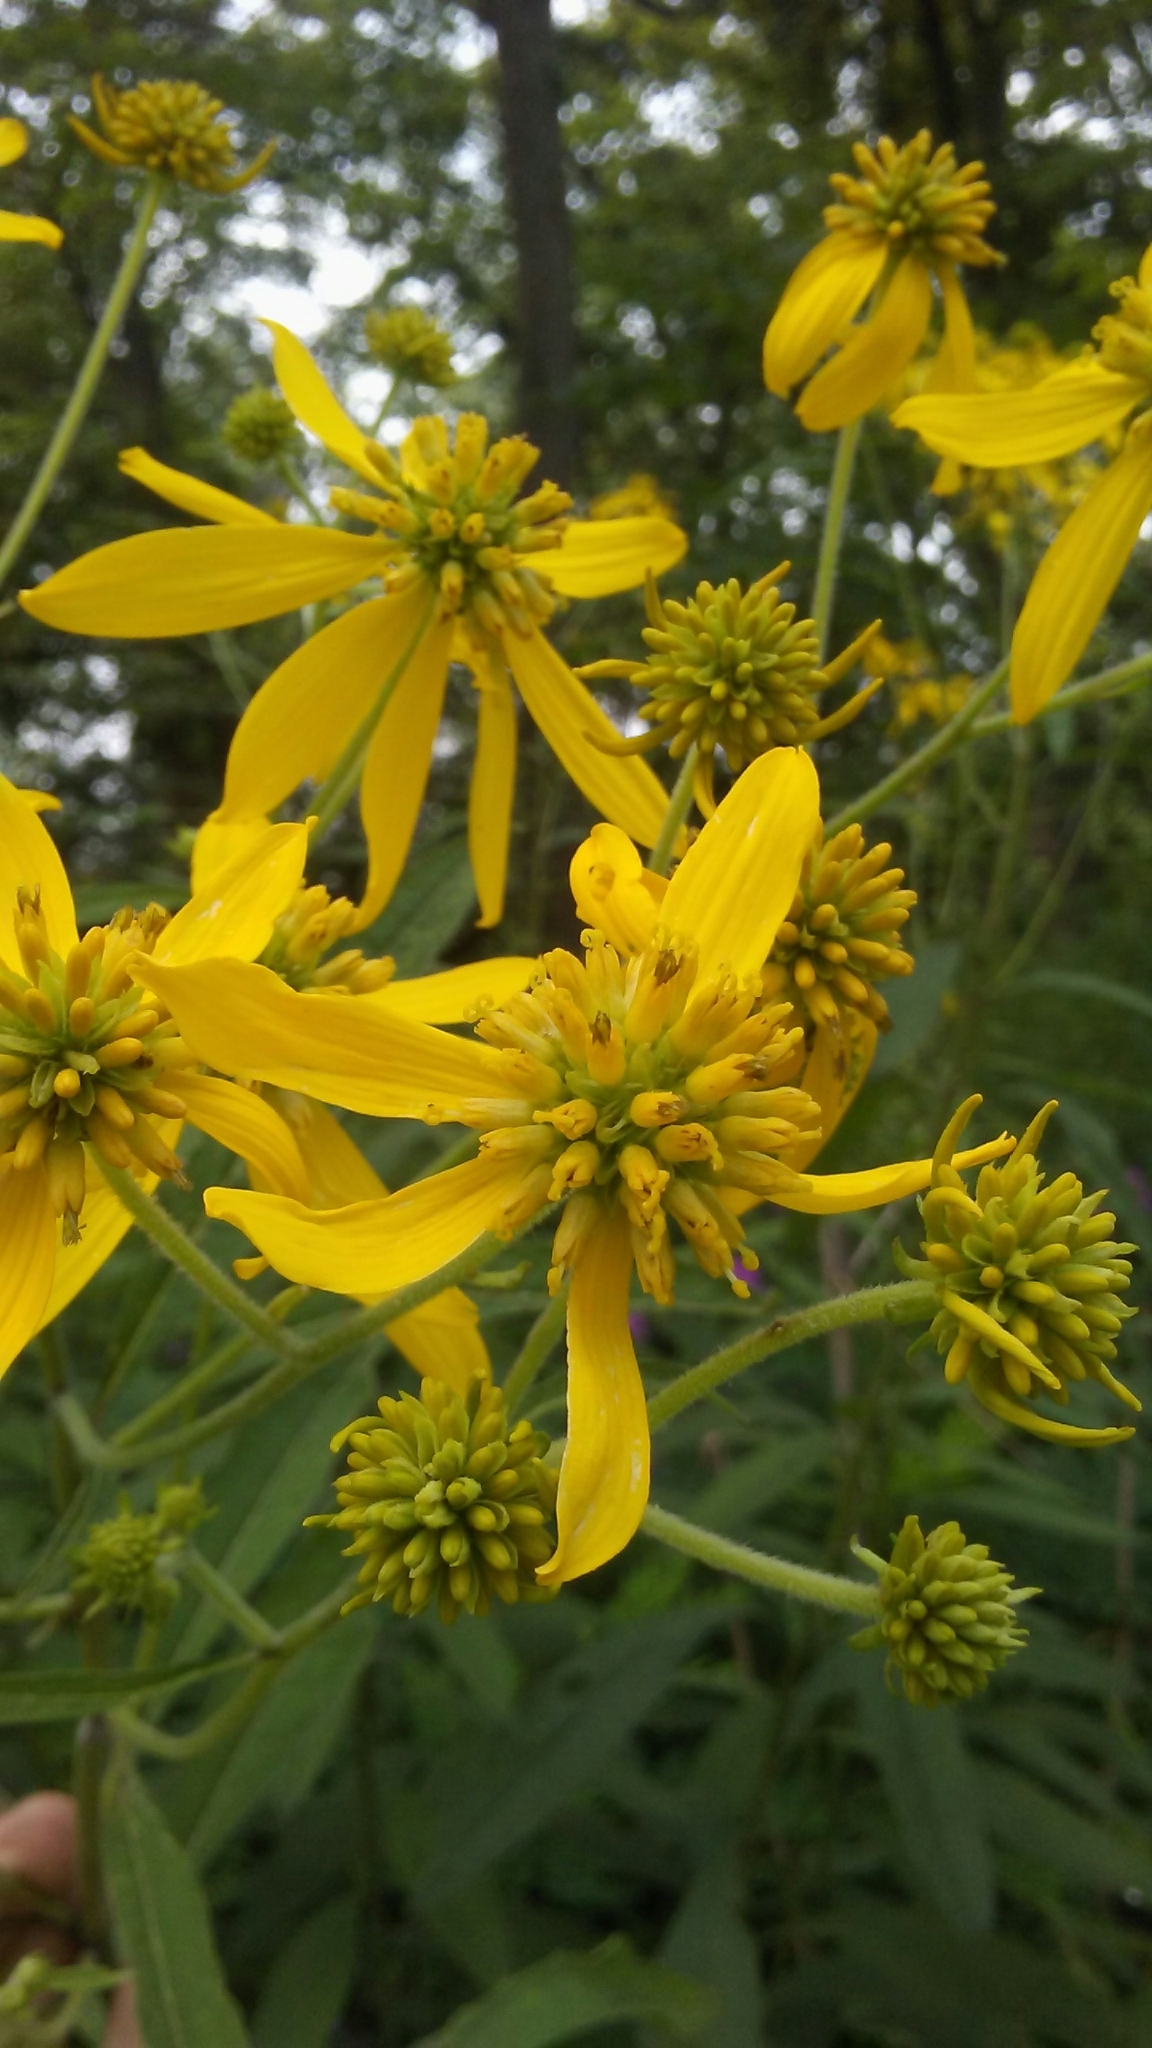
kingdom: Plantae
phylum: Tracheophyta
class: Magnoliopsida
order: Asterales
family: Asteraceae
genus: Verbesina
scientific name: Verbesina alternifolia
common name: Wingstem
